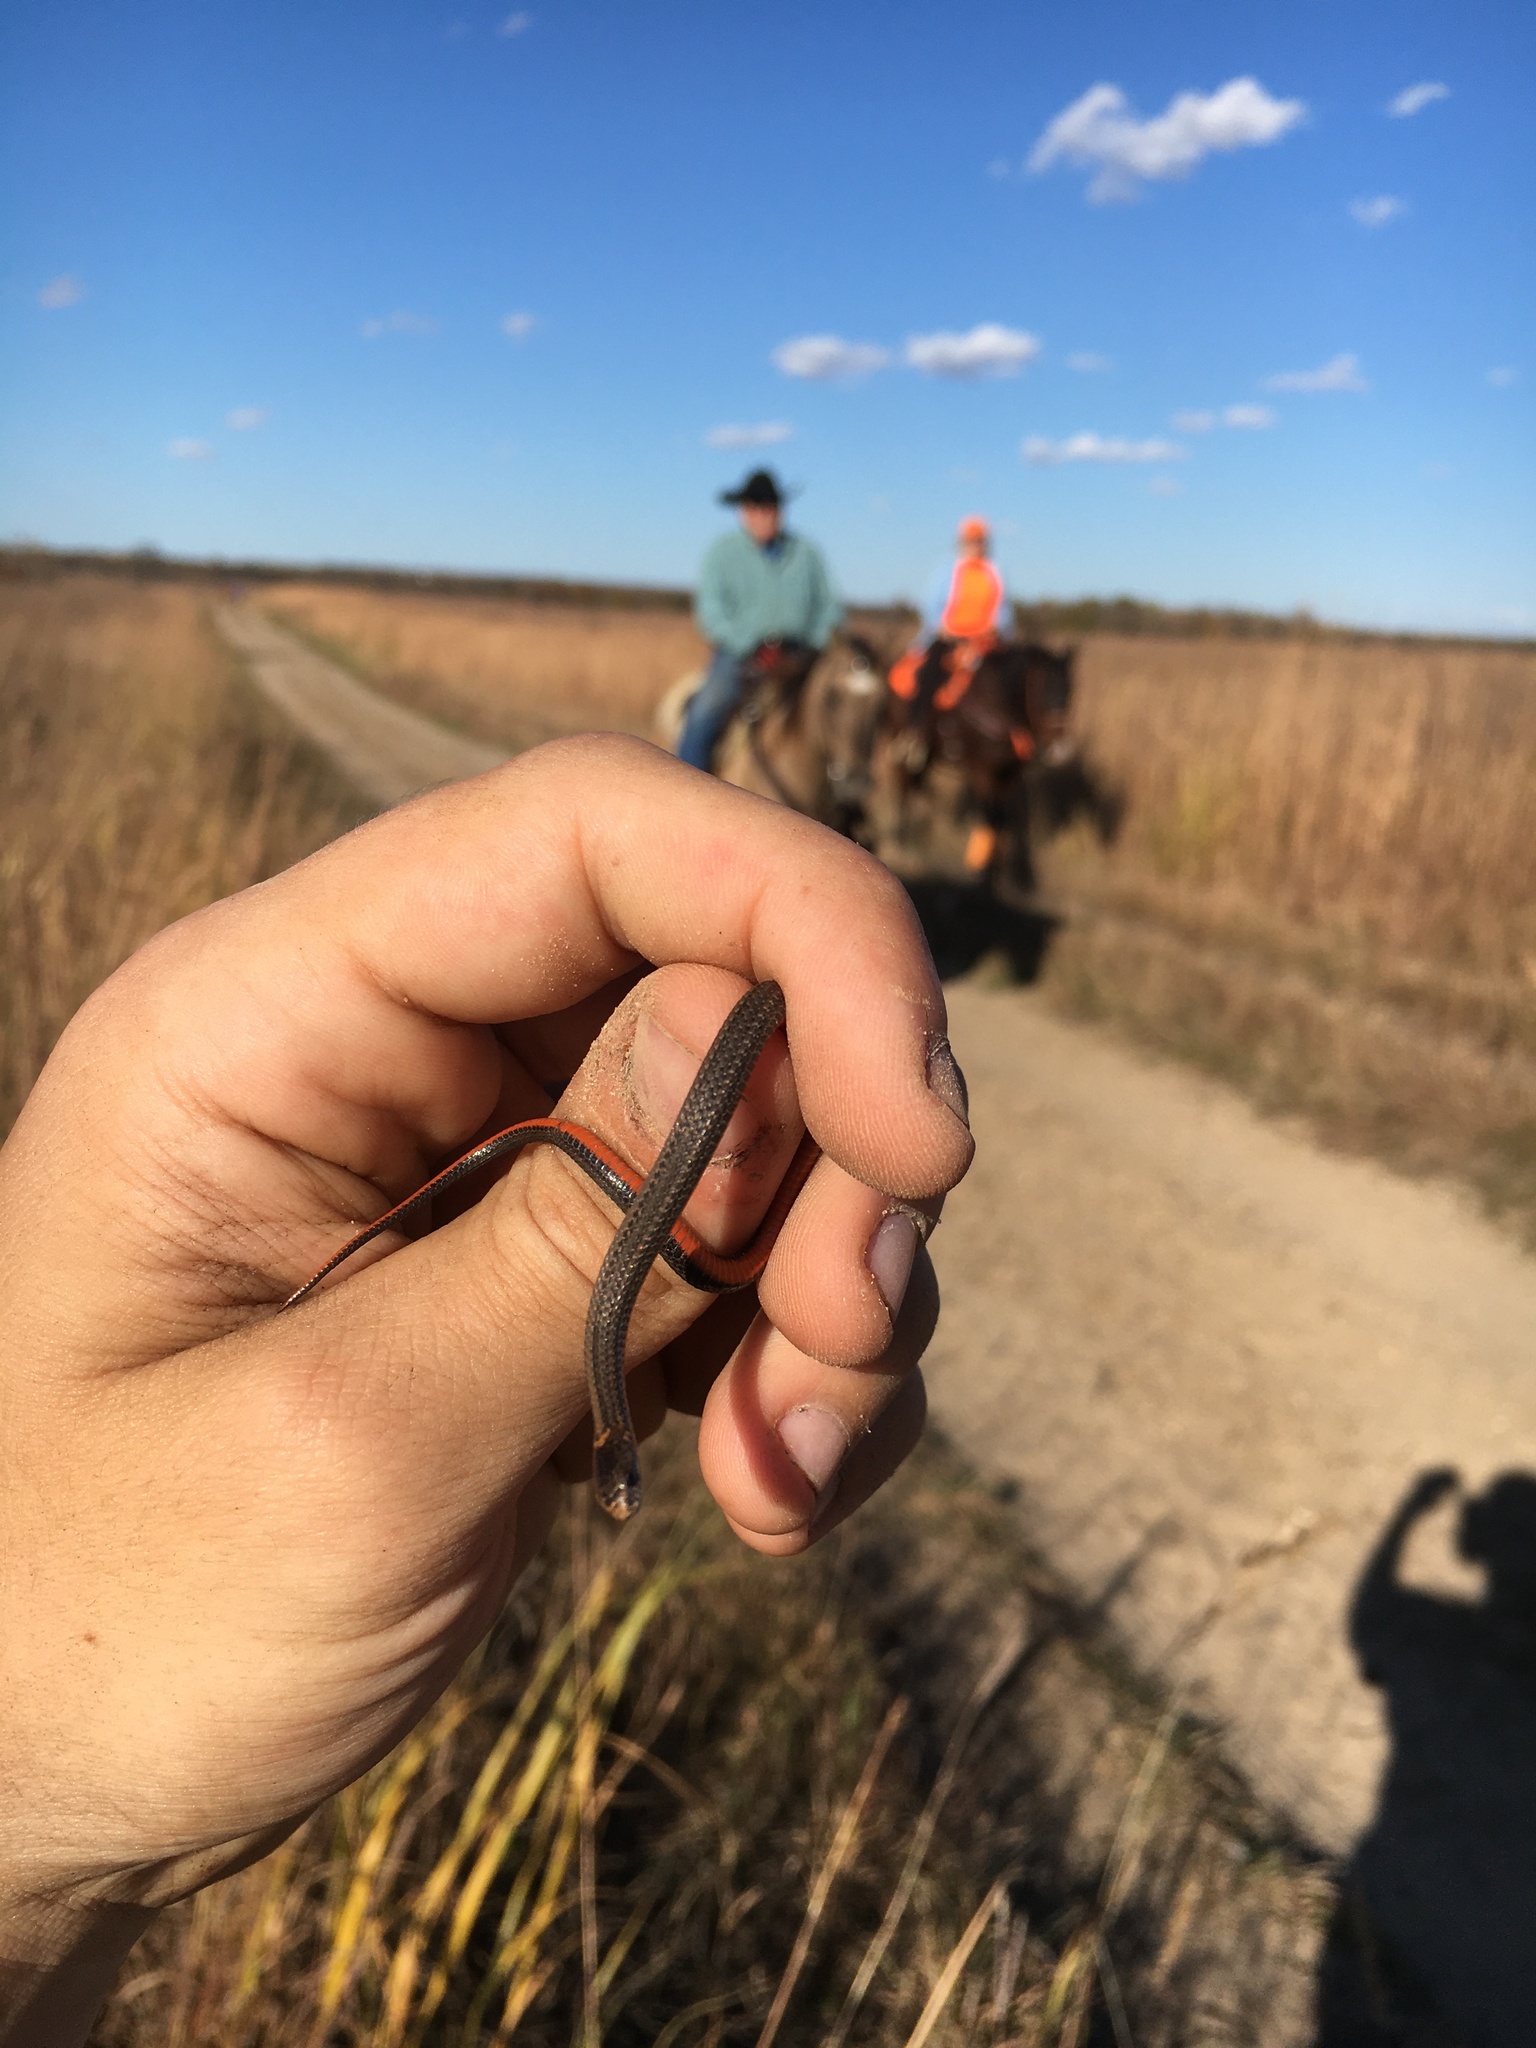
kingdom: Animalia
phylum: Chordata
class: Squamata
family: Colubridae
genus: Storeria
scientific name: Storeria occipitomaculata
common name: Redbelly snake
